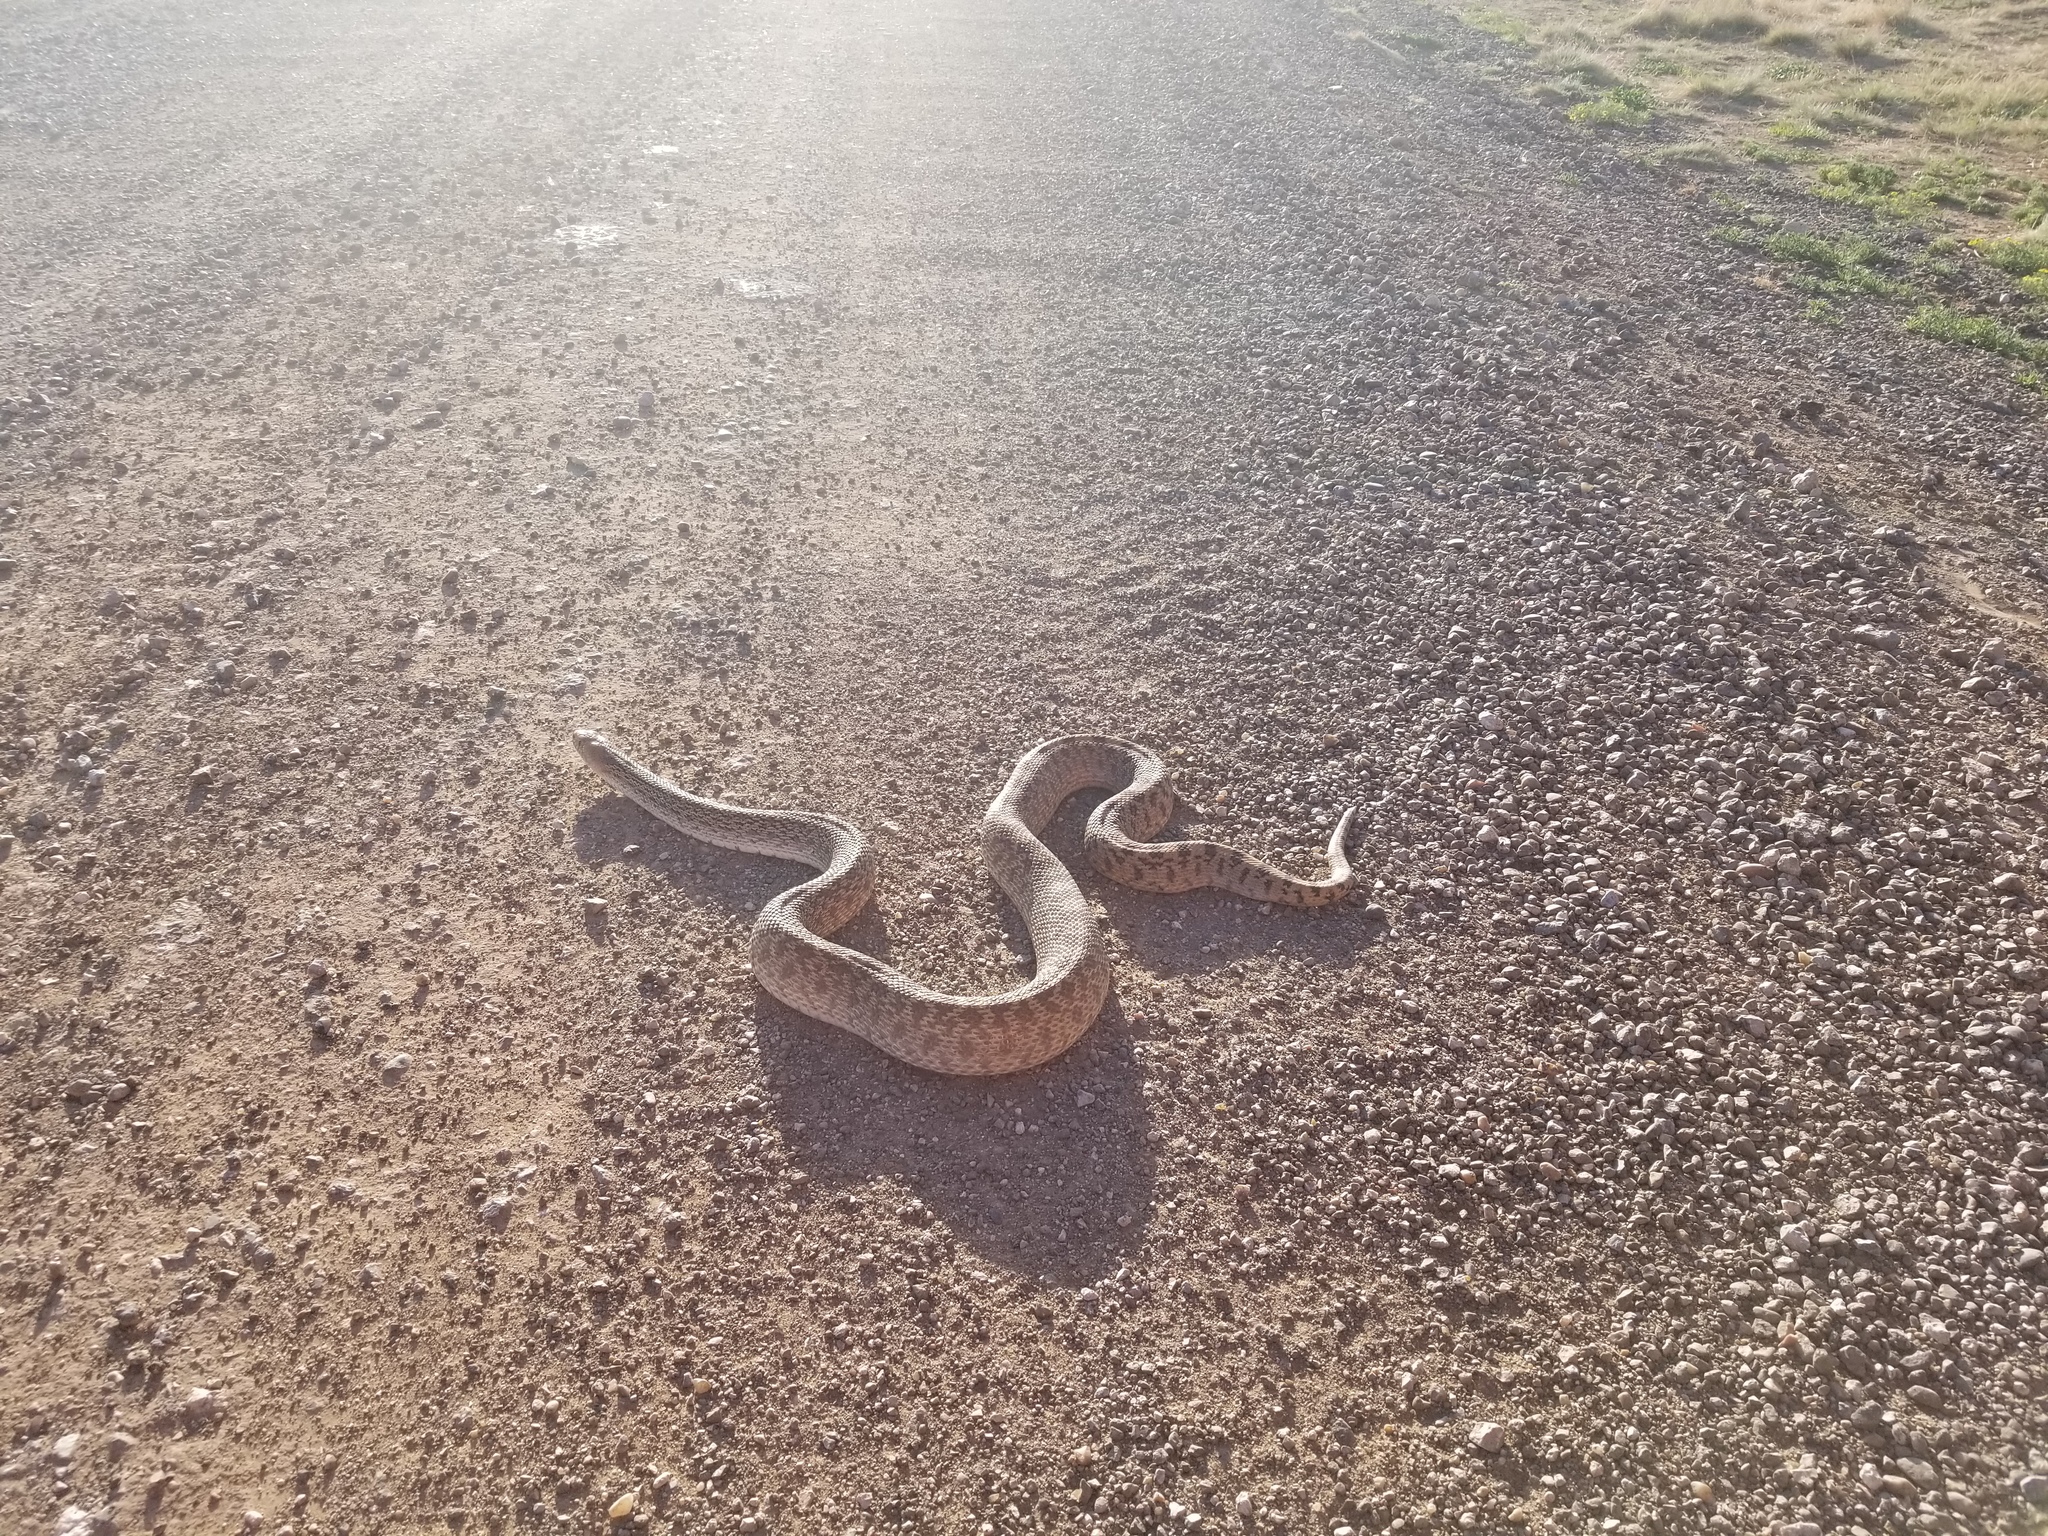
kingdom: Animalia
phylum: Chordata
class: Squamata
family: Colubridae
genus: Pituophis
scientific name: Pituophis catenifer
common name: Gopher snake
